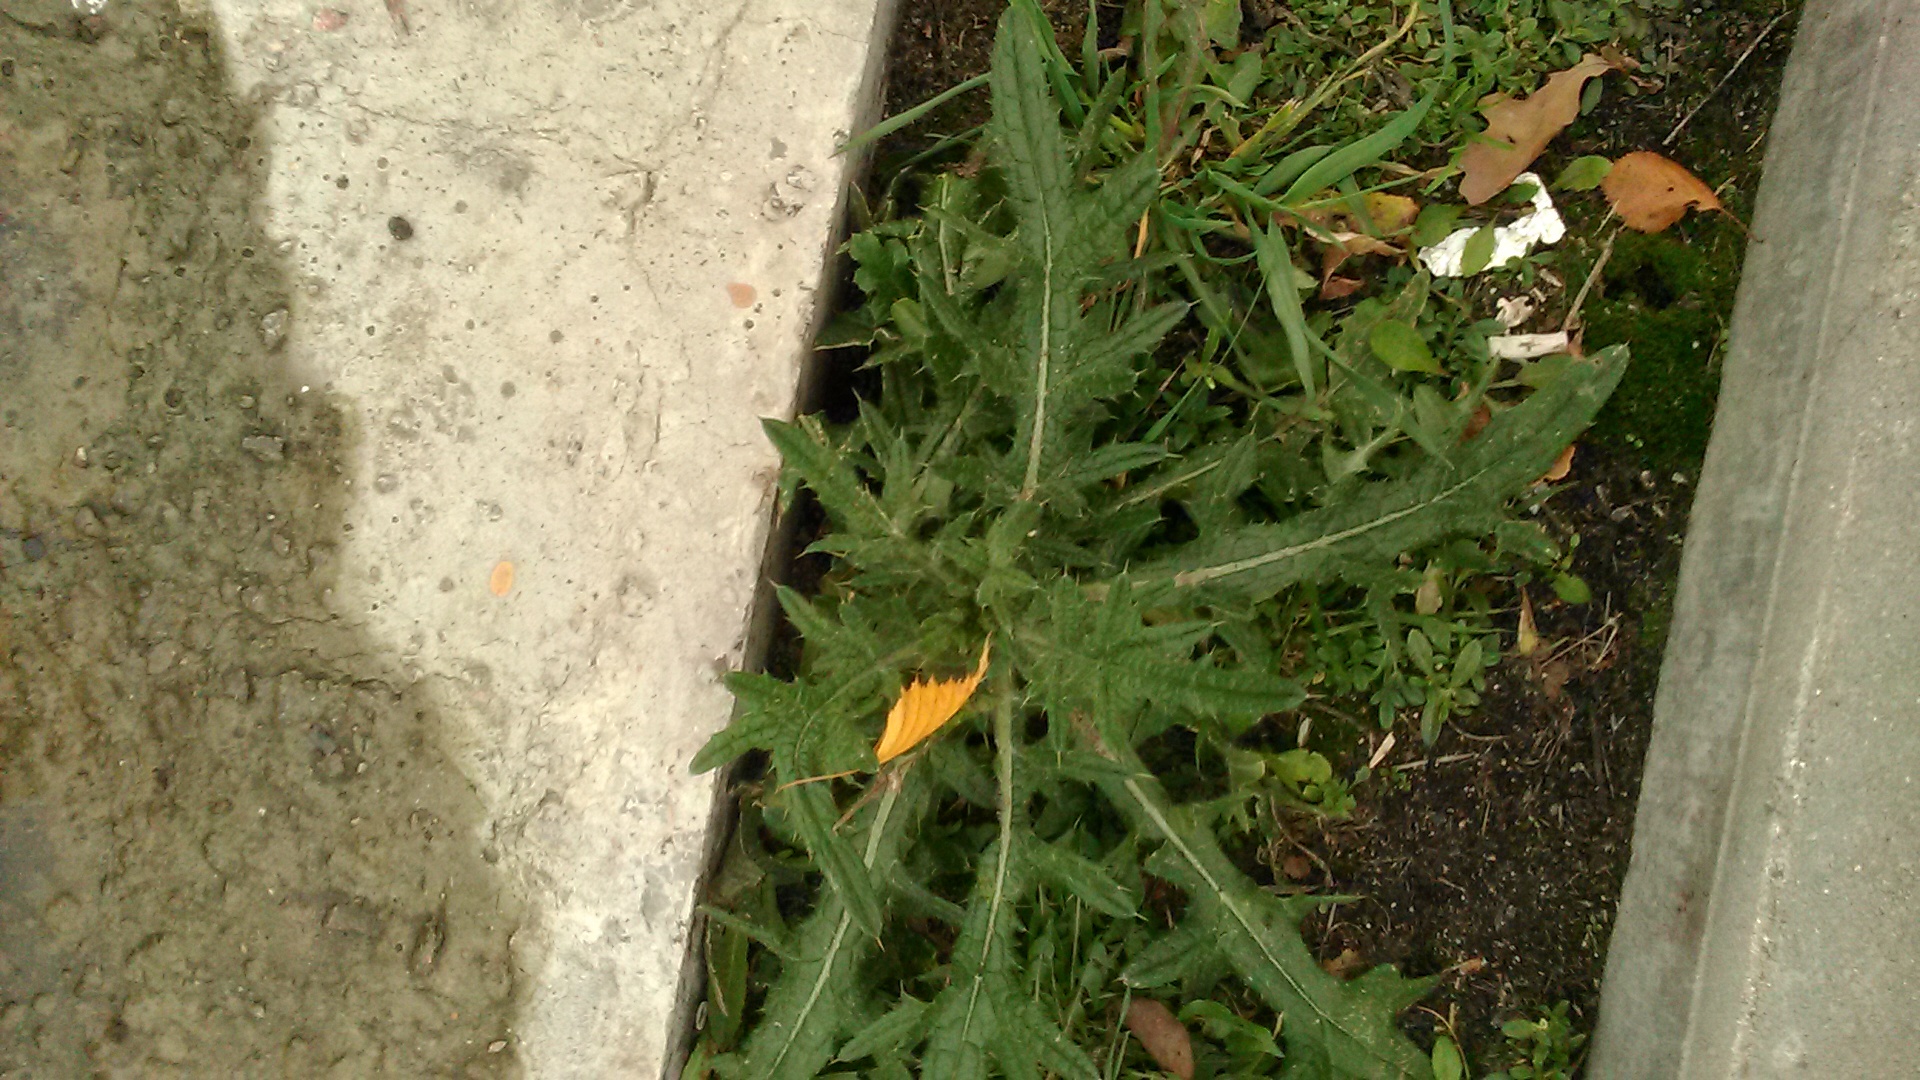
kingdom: Plantae
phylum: Tracheophyta
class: Magnoliopsida
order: Asterales
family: Asteraceae
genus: Cirsium
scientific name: Cirsium vulgare
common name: Bull thistle
